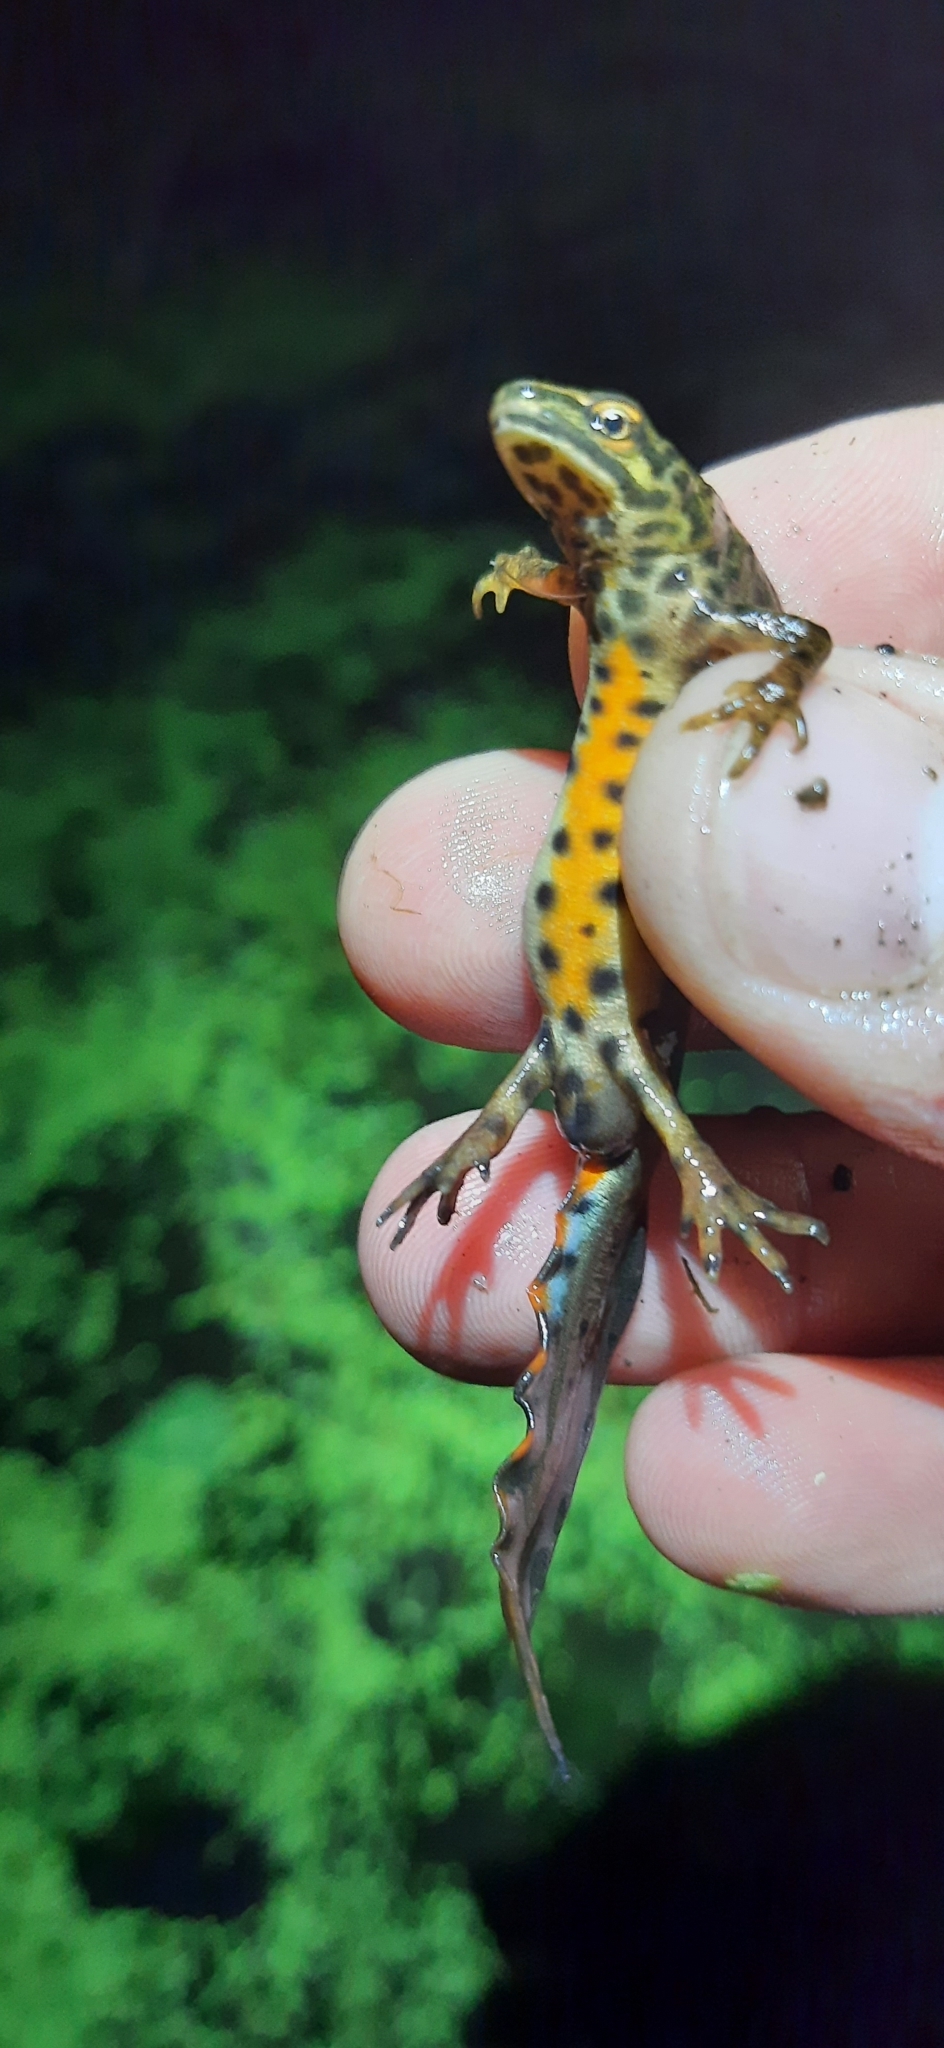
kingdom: Animalia
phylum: Chordata
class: Amphibia
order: Caudata
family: Salamandridae
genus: Lissotriton
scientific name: Lissotriton vulgaris
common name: Smooth newt
